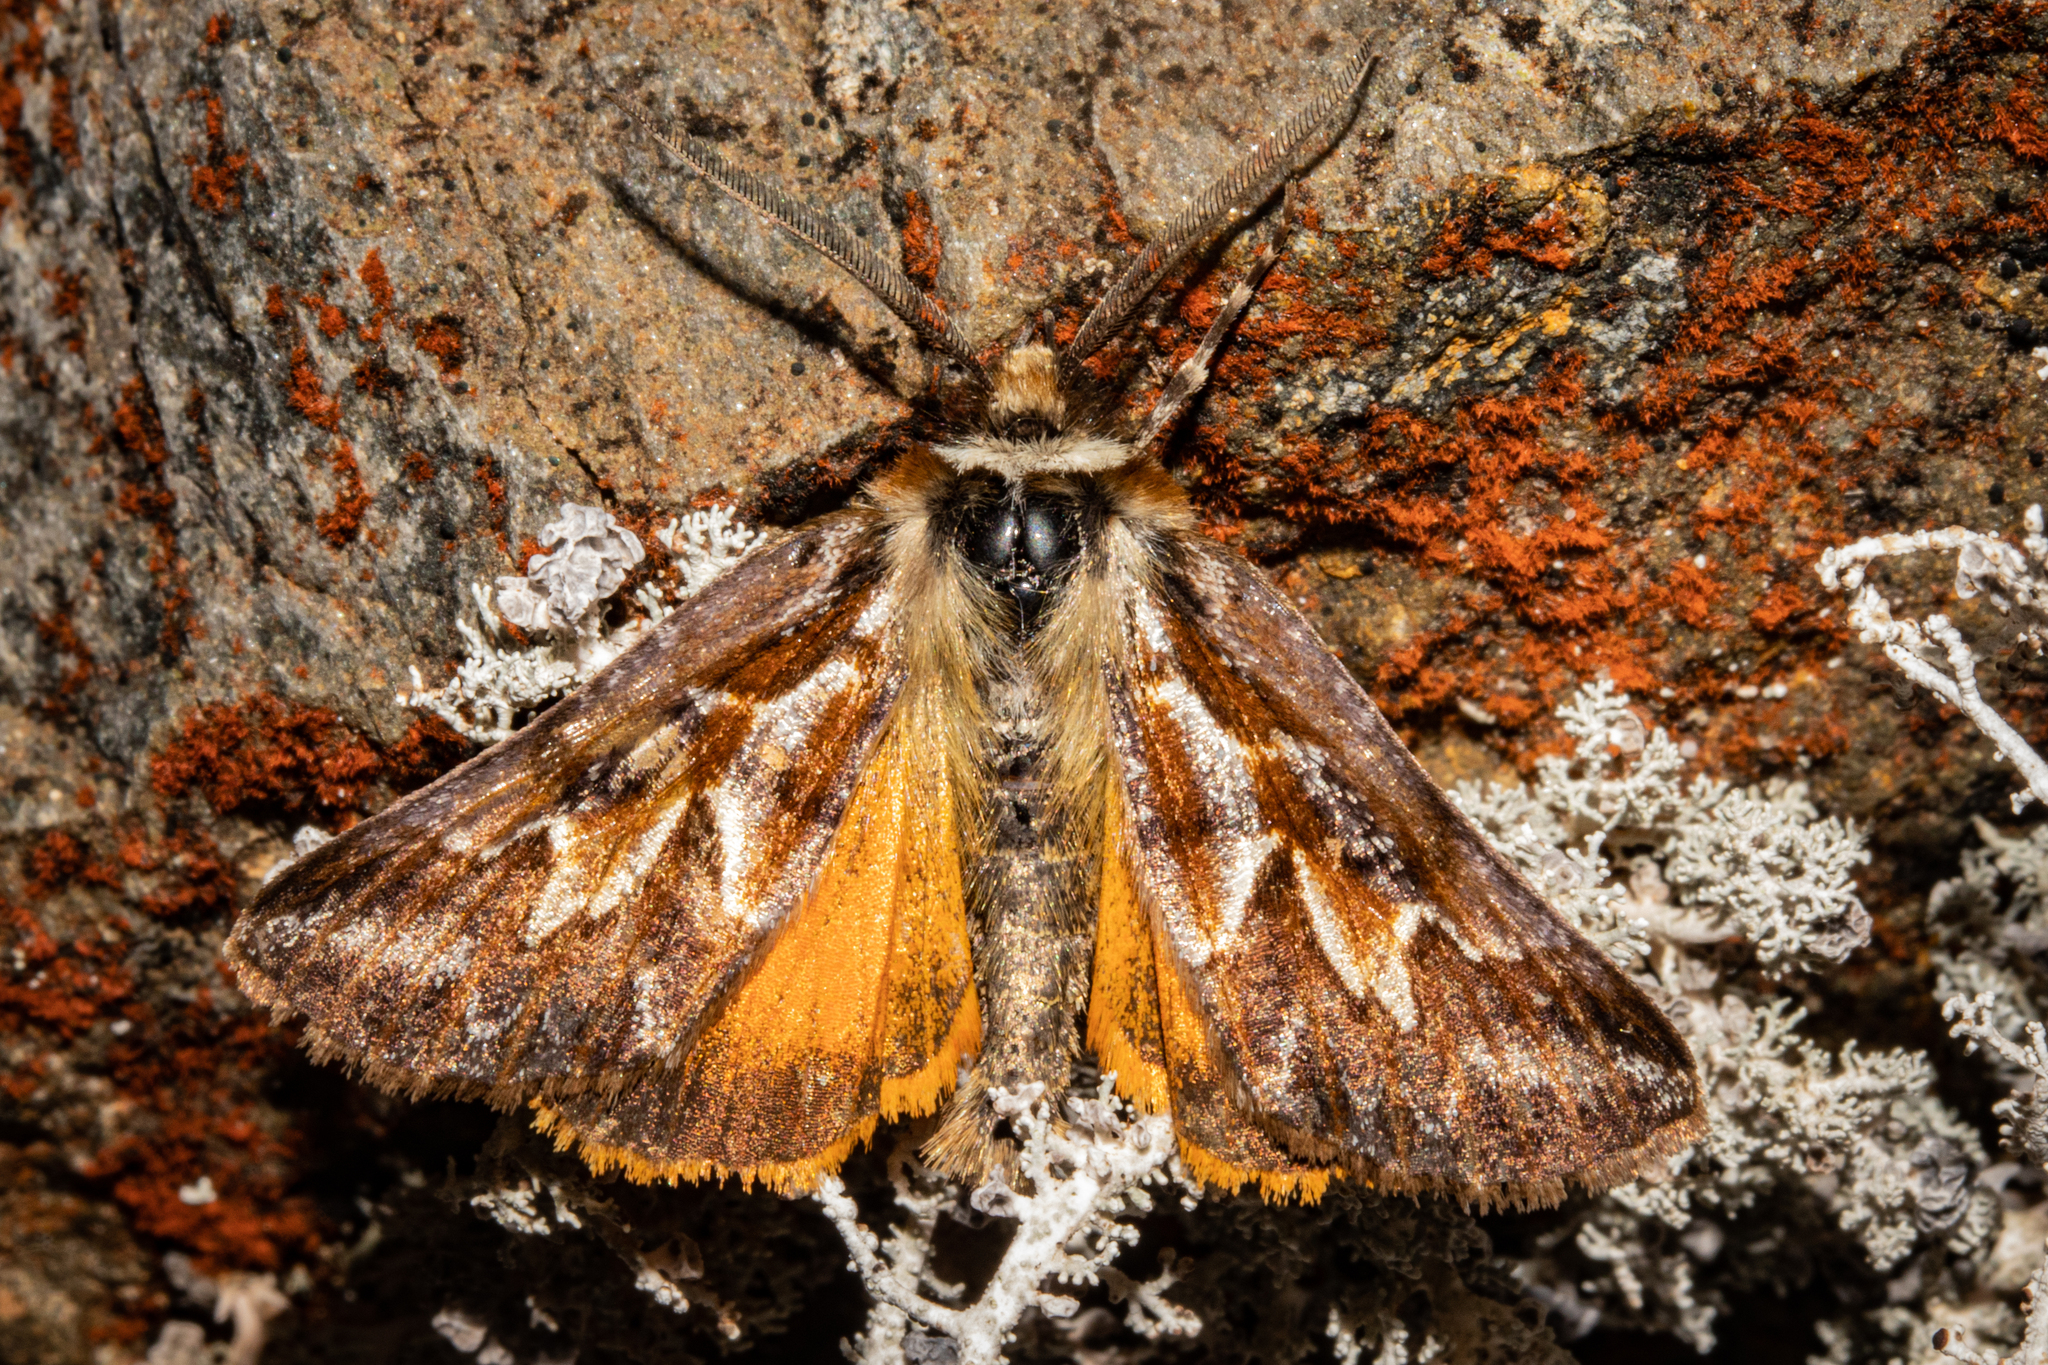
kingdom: Animalia
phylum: Arthropoda
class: Insecta
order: Lepidoptera
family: Geometridae
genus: Declana
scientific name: Declana
